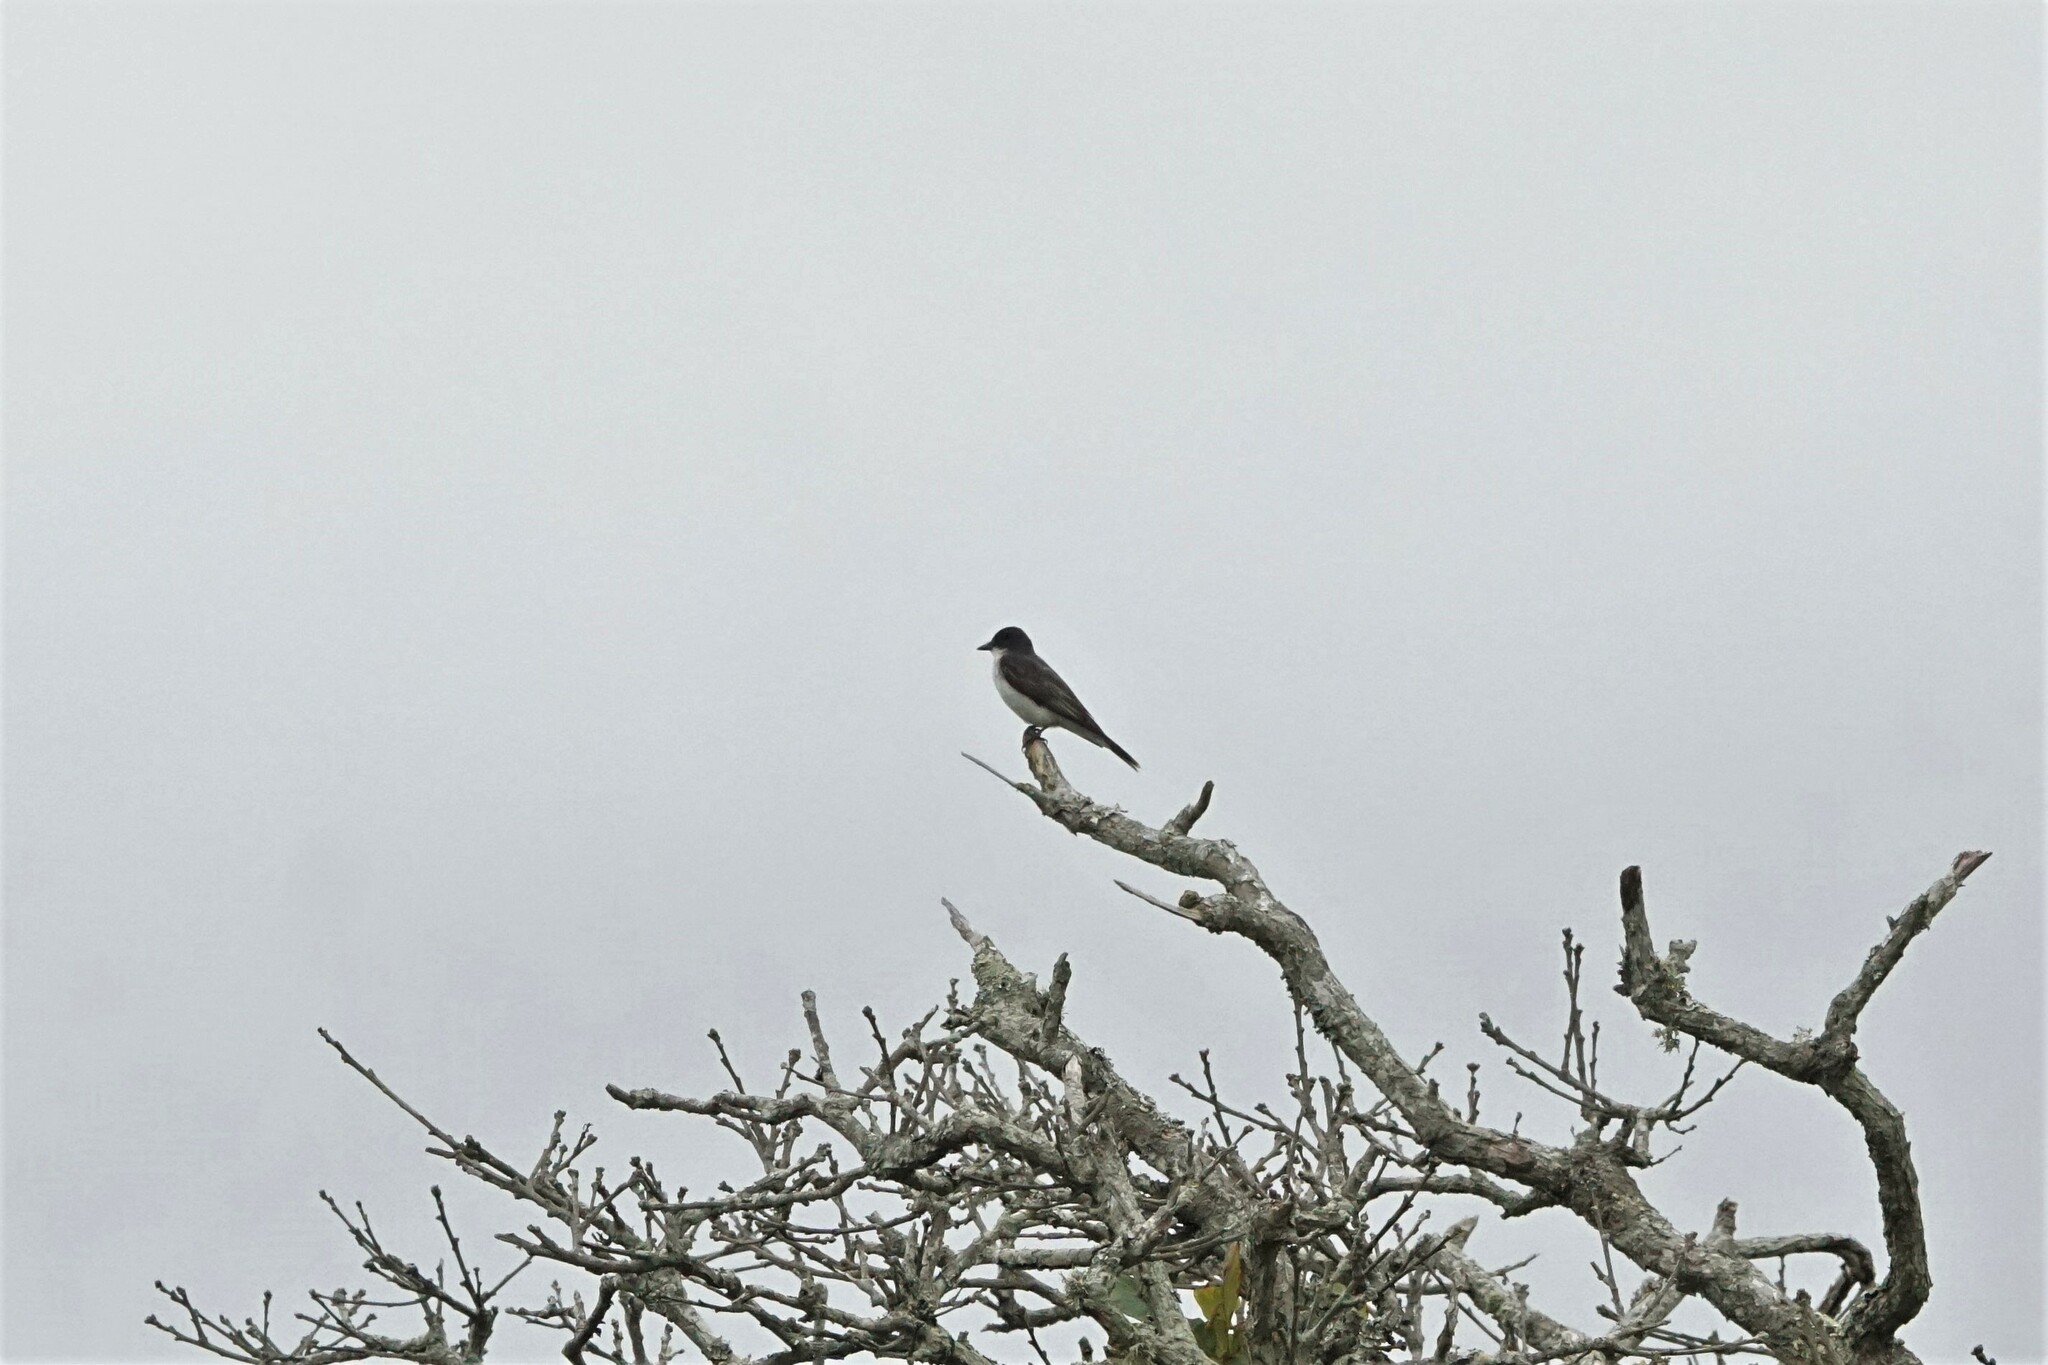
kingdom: Animalia
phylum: Chordata
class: Aves
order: Passeriformes
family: Tyrannidae
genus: Tyrannus
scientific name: Tyrannus tyrannus
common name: Eastern kingbird
